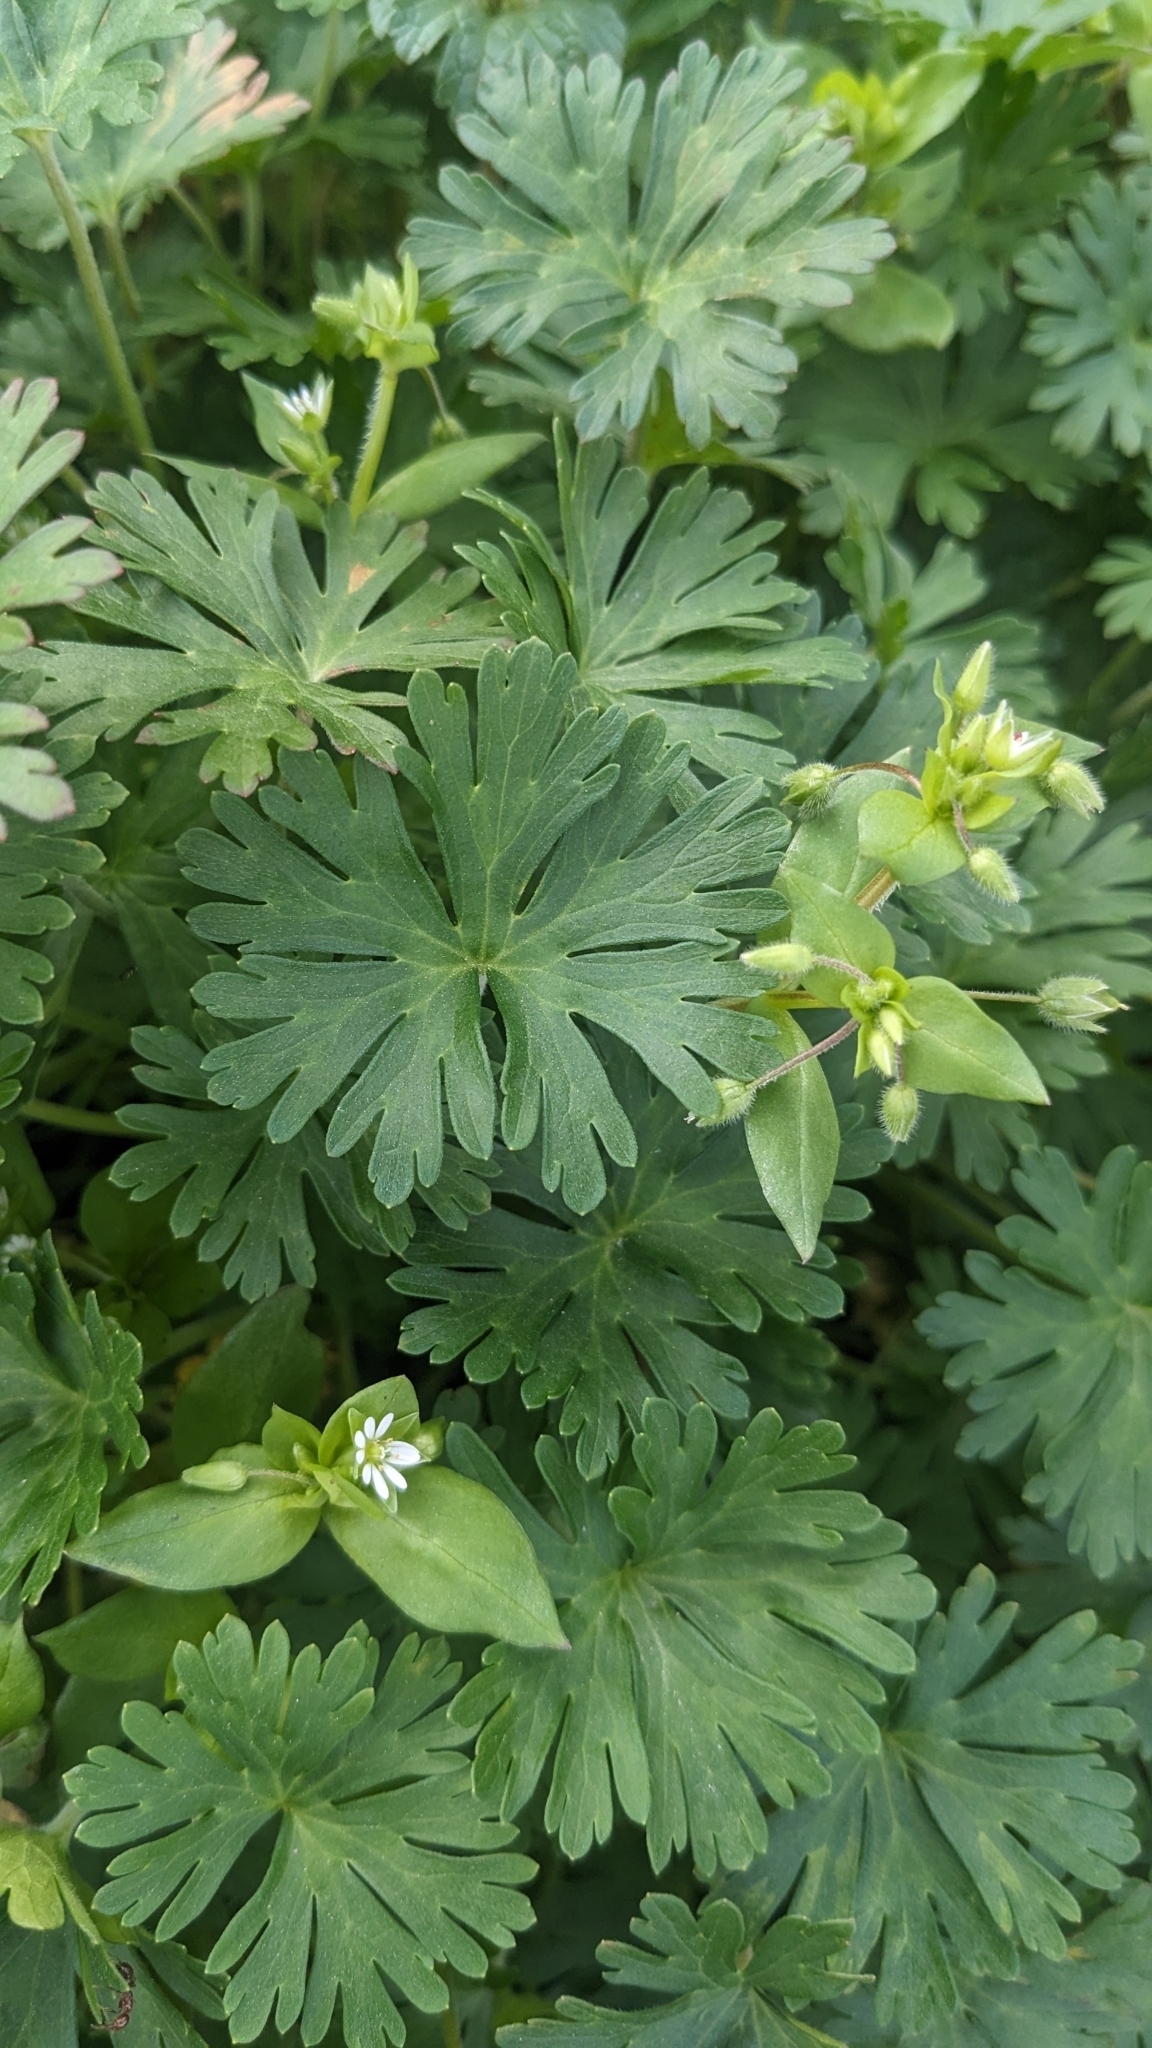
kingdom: Plantae
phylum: Tracheophyta
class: Magnoliopsida
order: Caryophyllales
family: Caryophyllaceae
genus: Stellaria
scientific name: Stellaria media
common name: Common chickweed
